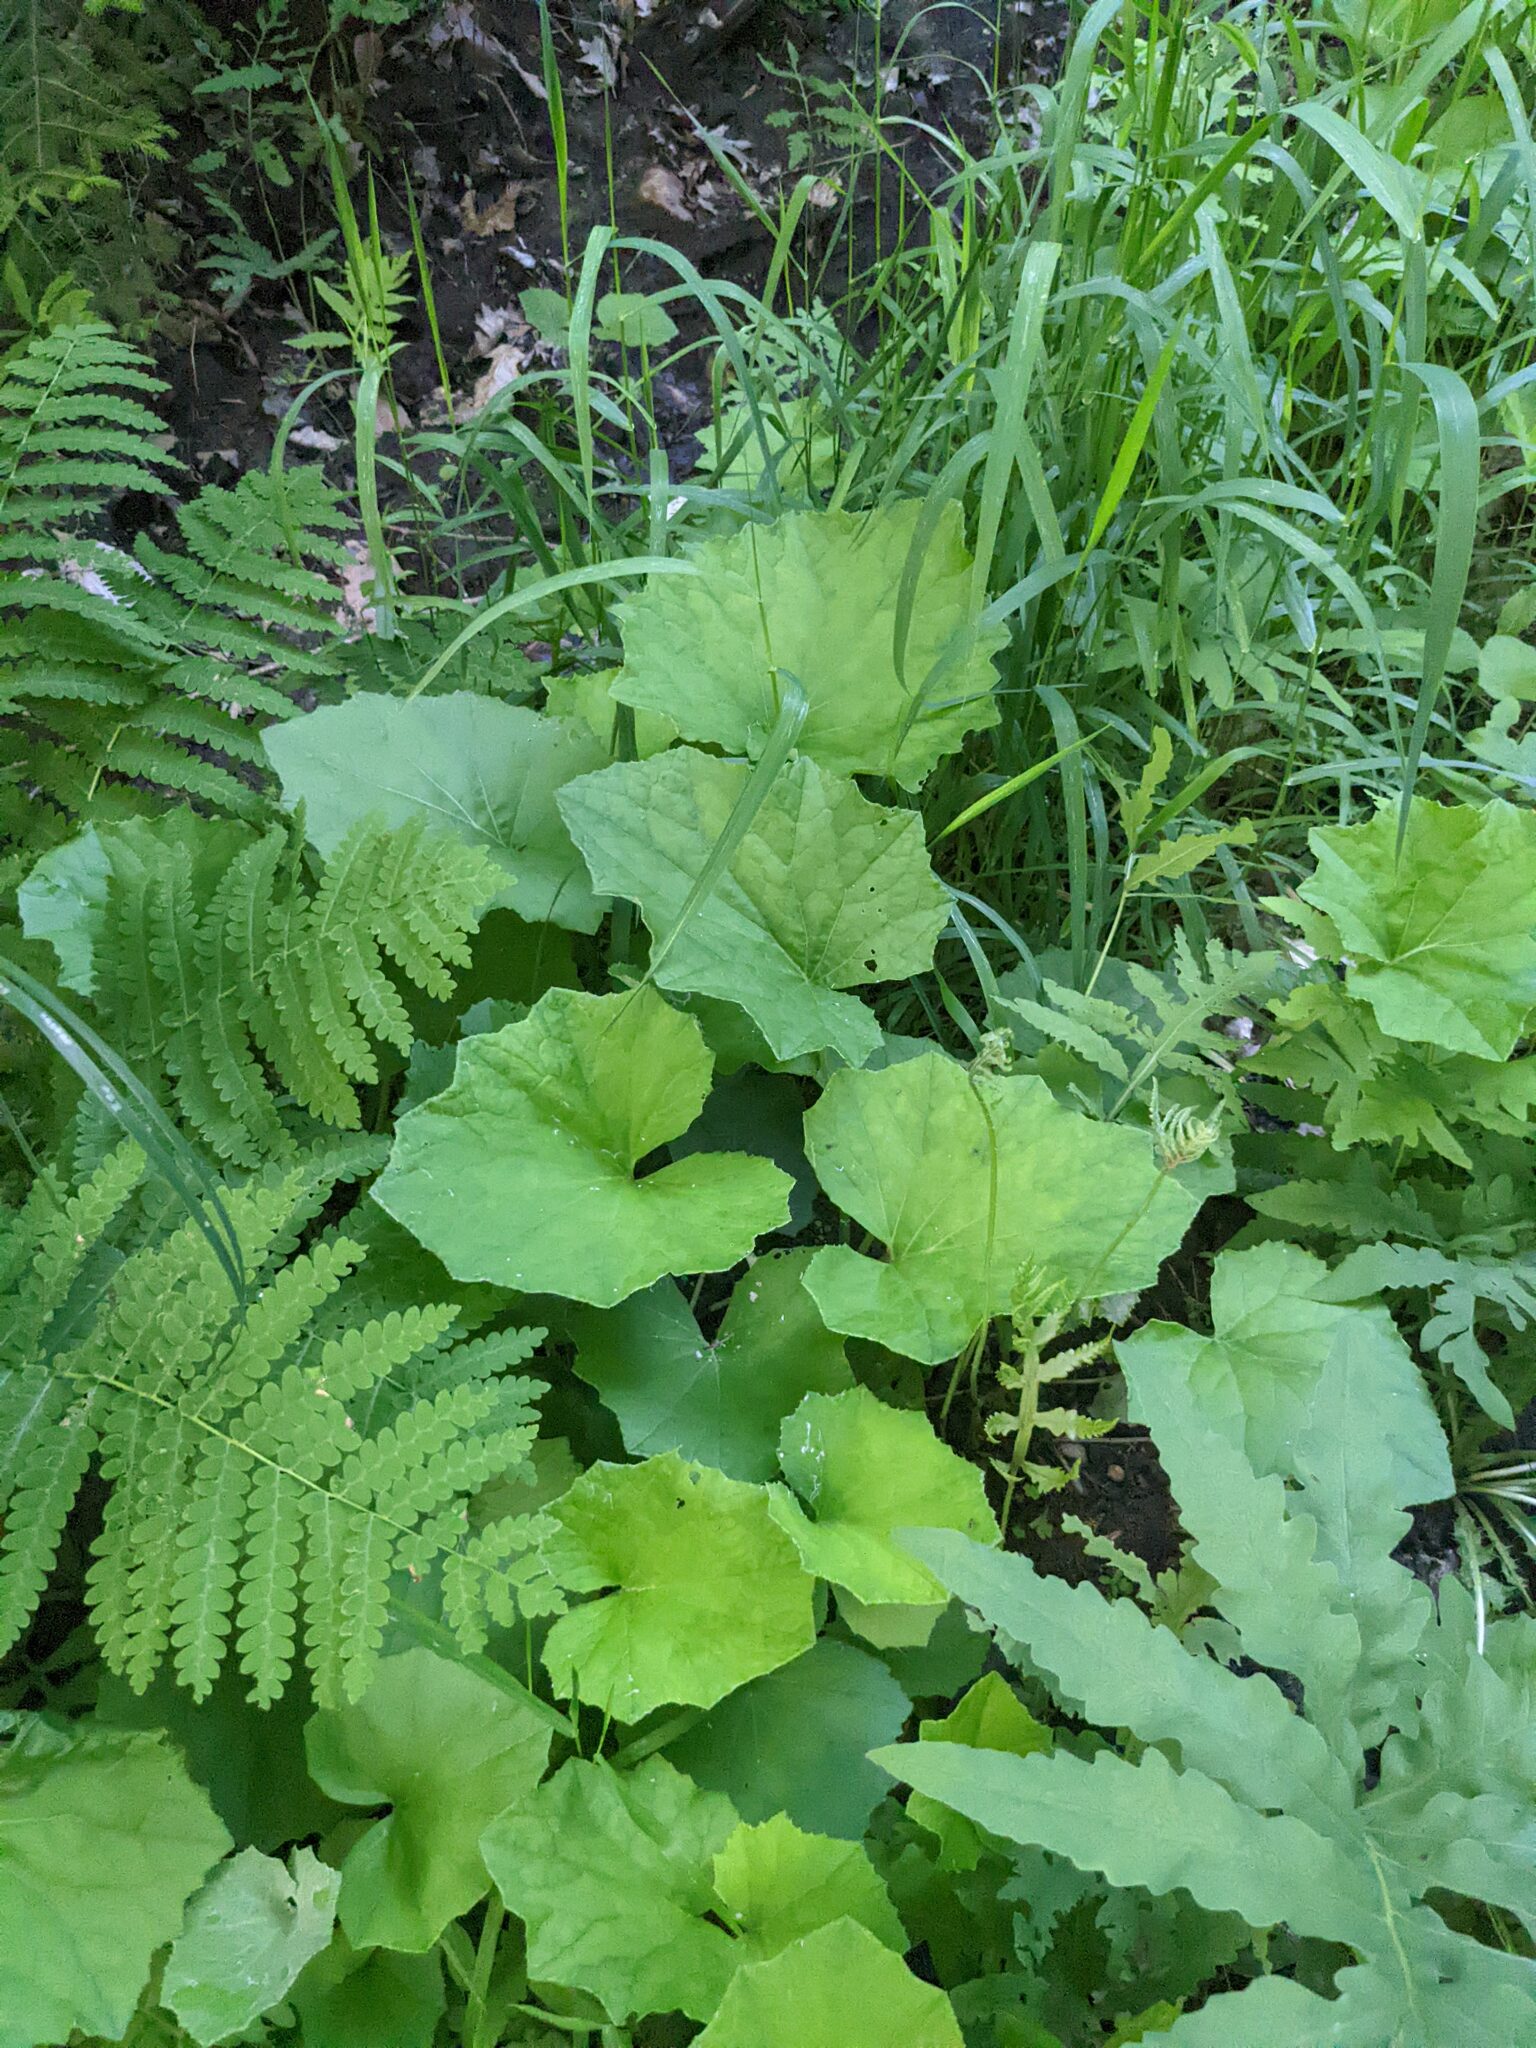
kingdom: Plantae
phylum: Tracheophyta
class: Magnoliopsida
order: Asterales
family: Asteraceae
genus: Tussilago
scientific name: Tussilago farfara
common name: Coltsfoot
